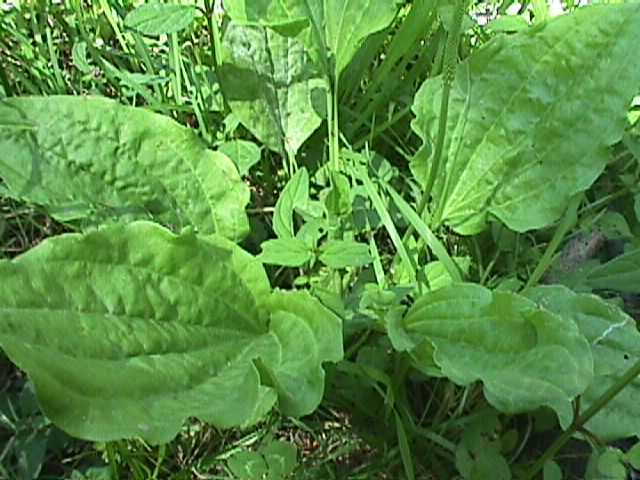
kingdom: Plantae
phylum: Tracheophyta
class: Magnoliopsida
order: Lamiales
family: Plantaginaceae
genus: Plantago
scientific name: Plantago major
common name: Common plantain
